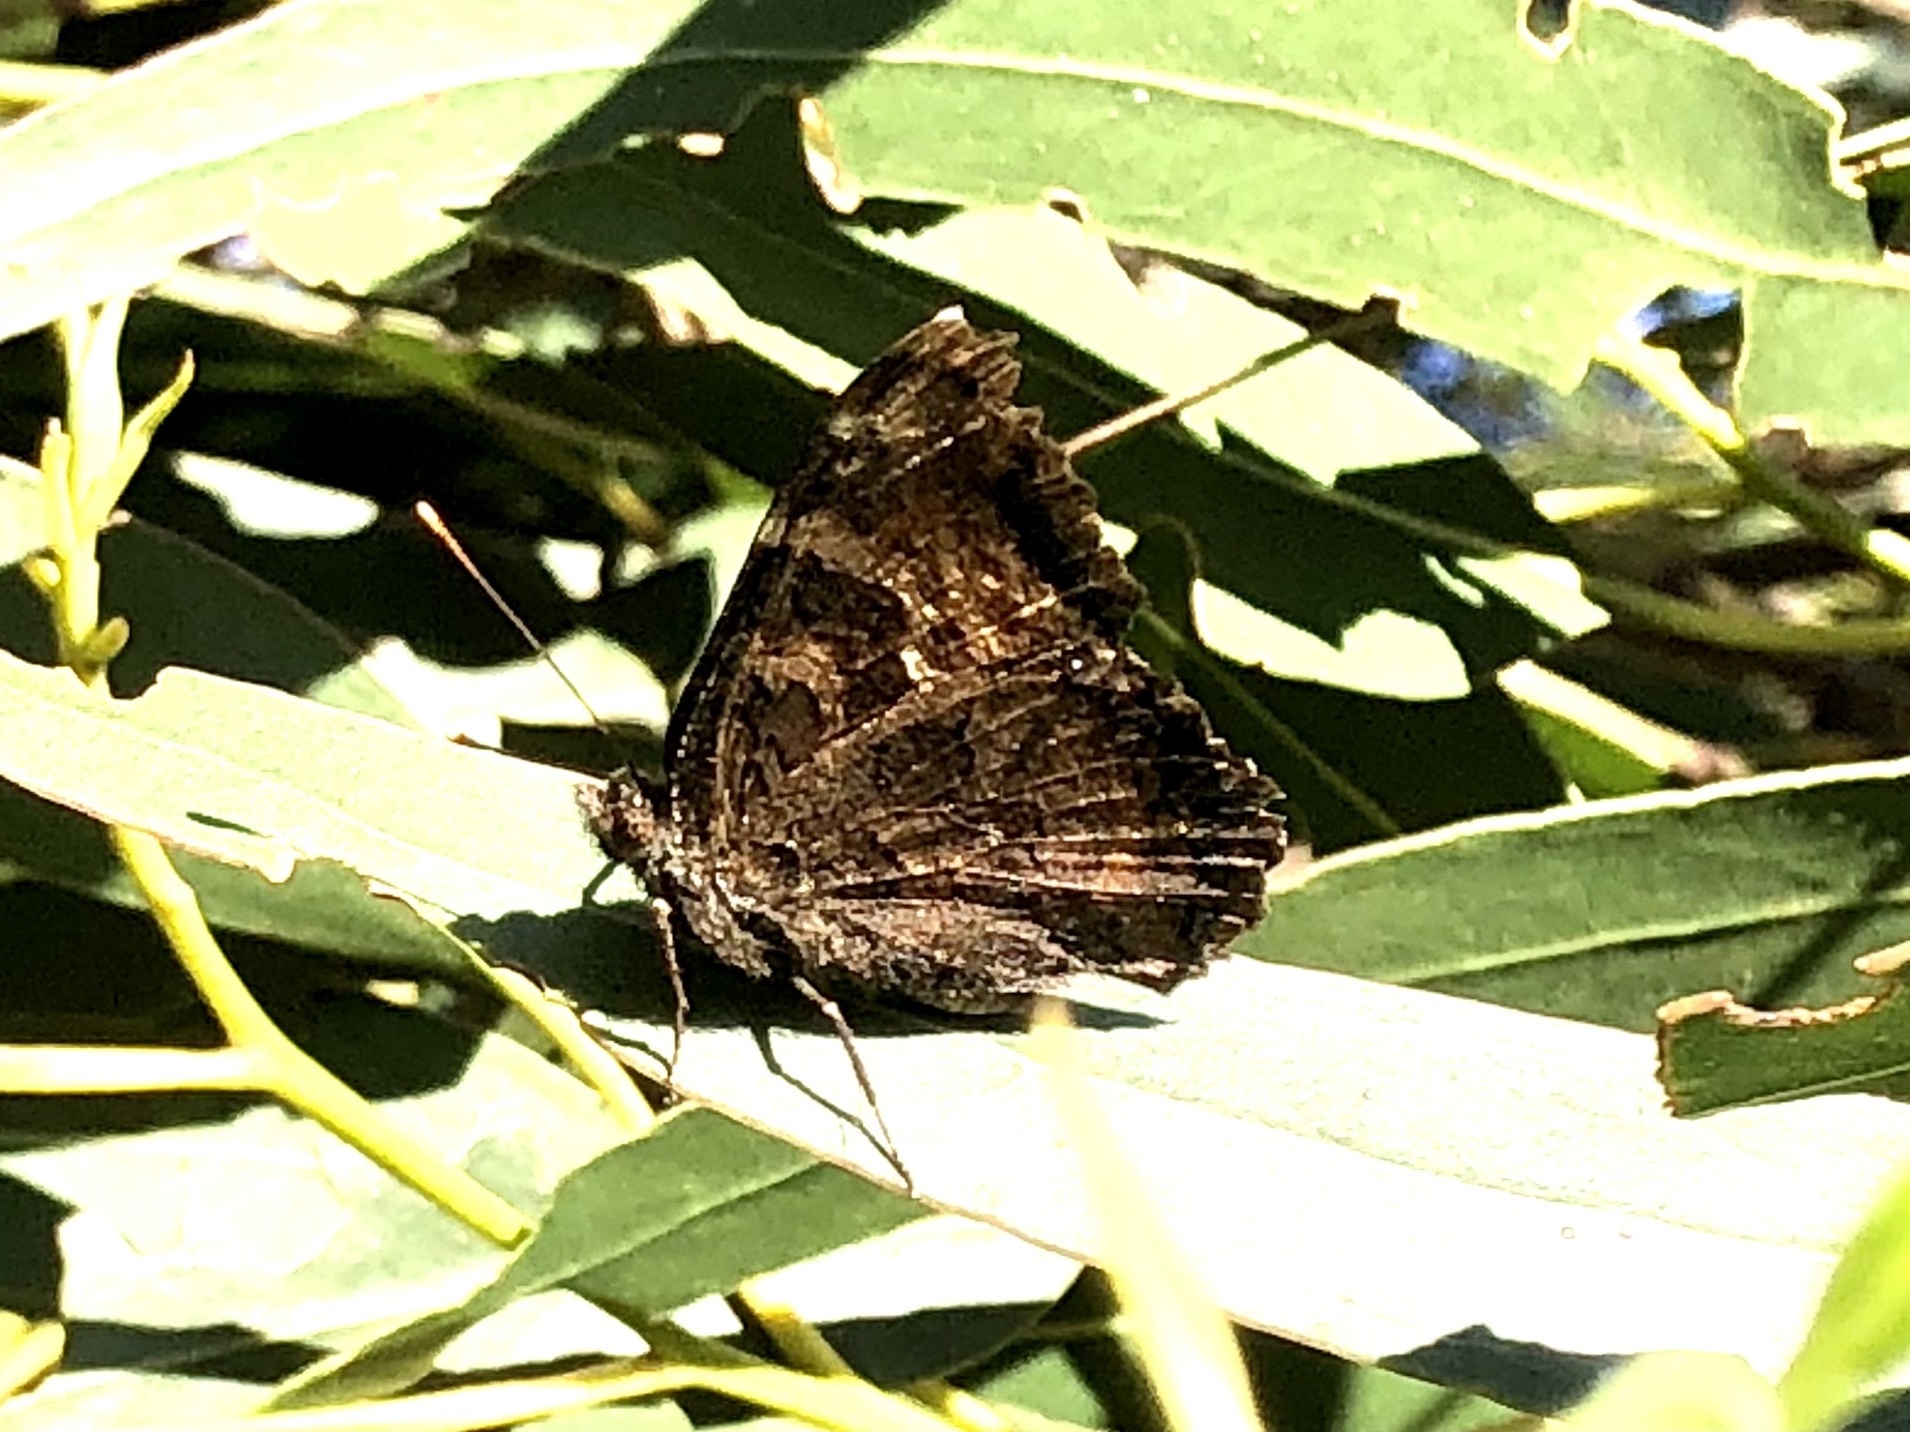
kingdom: Animalia
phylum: Arthropoda
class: Insecta
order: Lepidoptera
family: Nymphalidae
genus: Nymphalis
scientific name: Nymphalis californica
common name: California tortoiseshell
